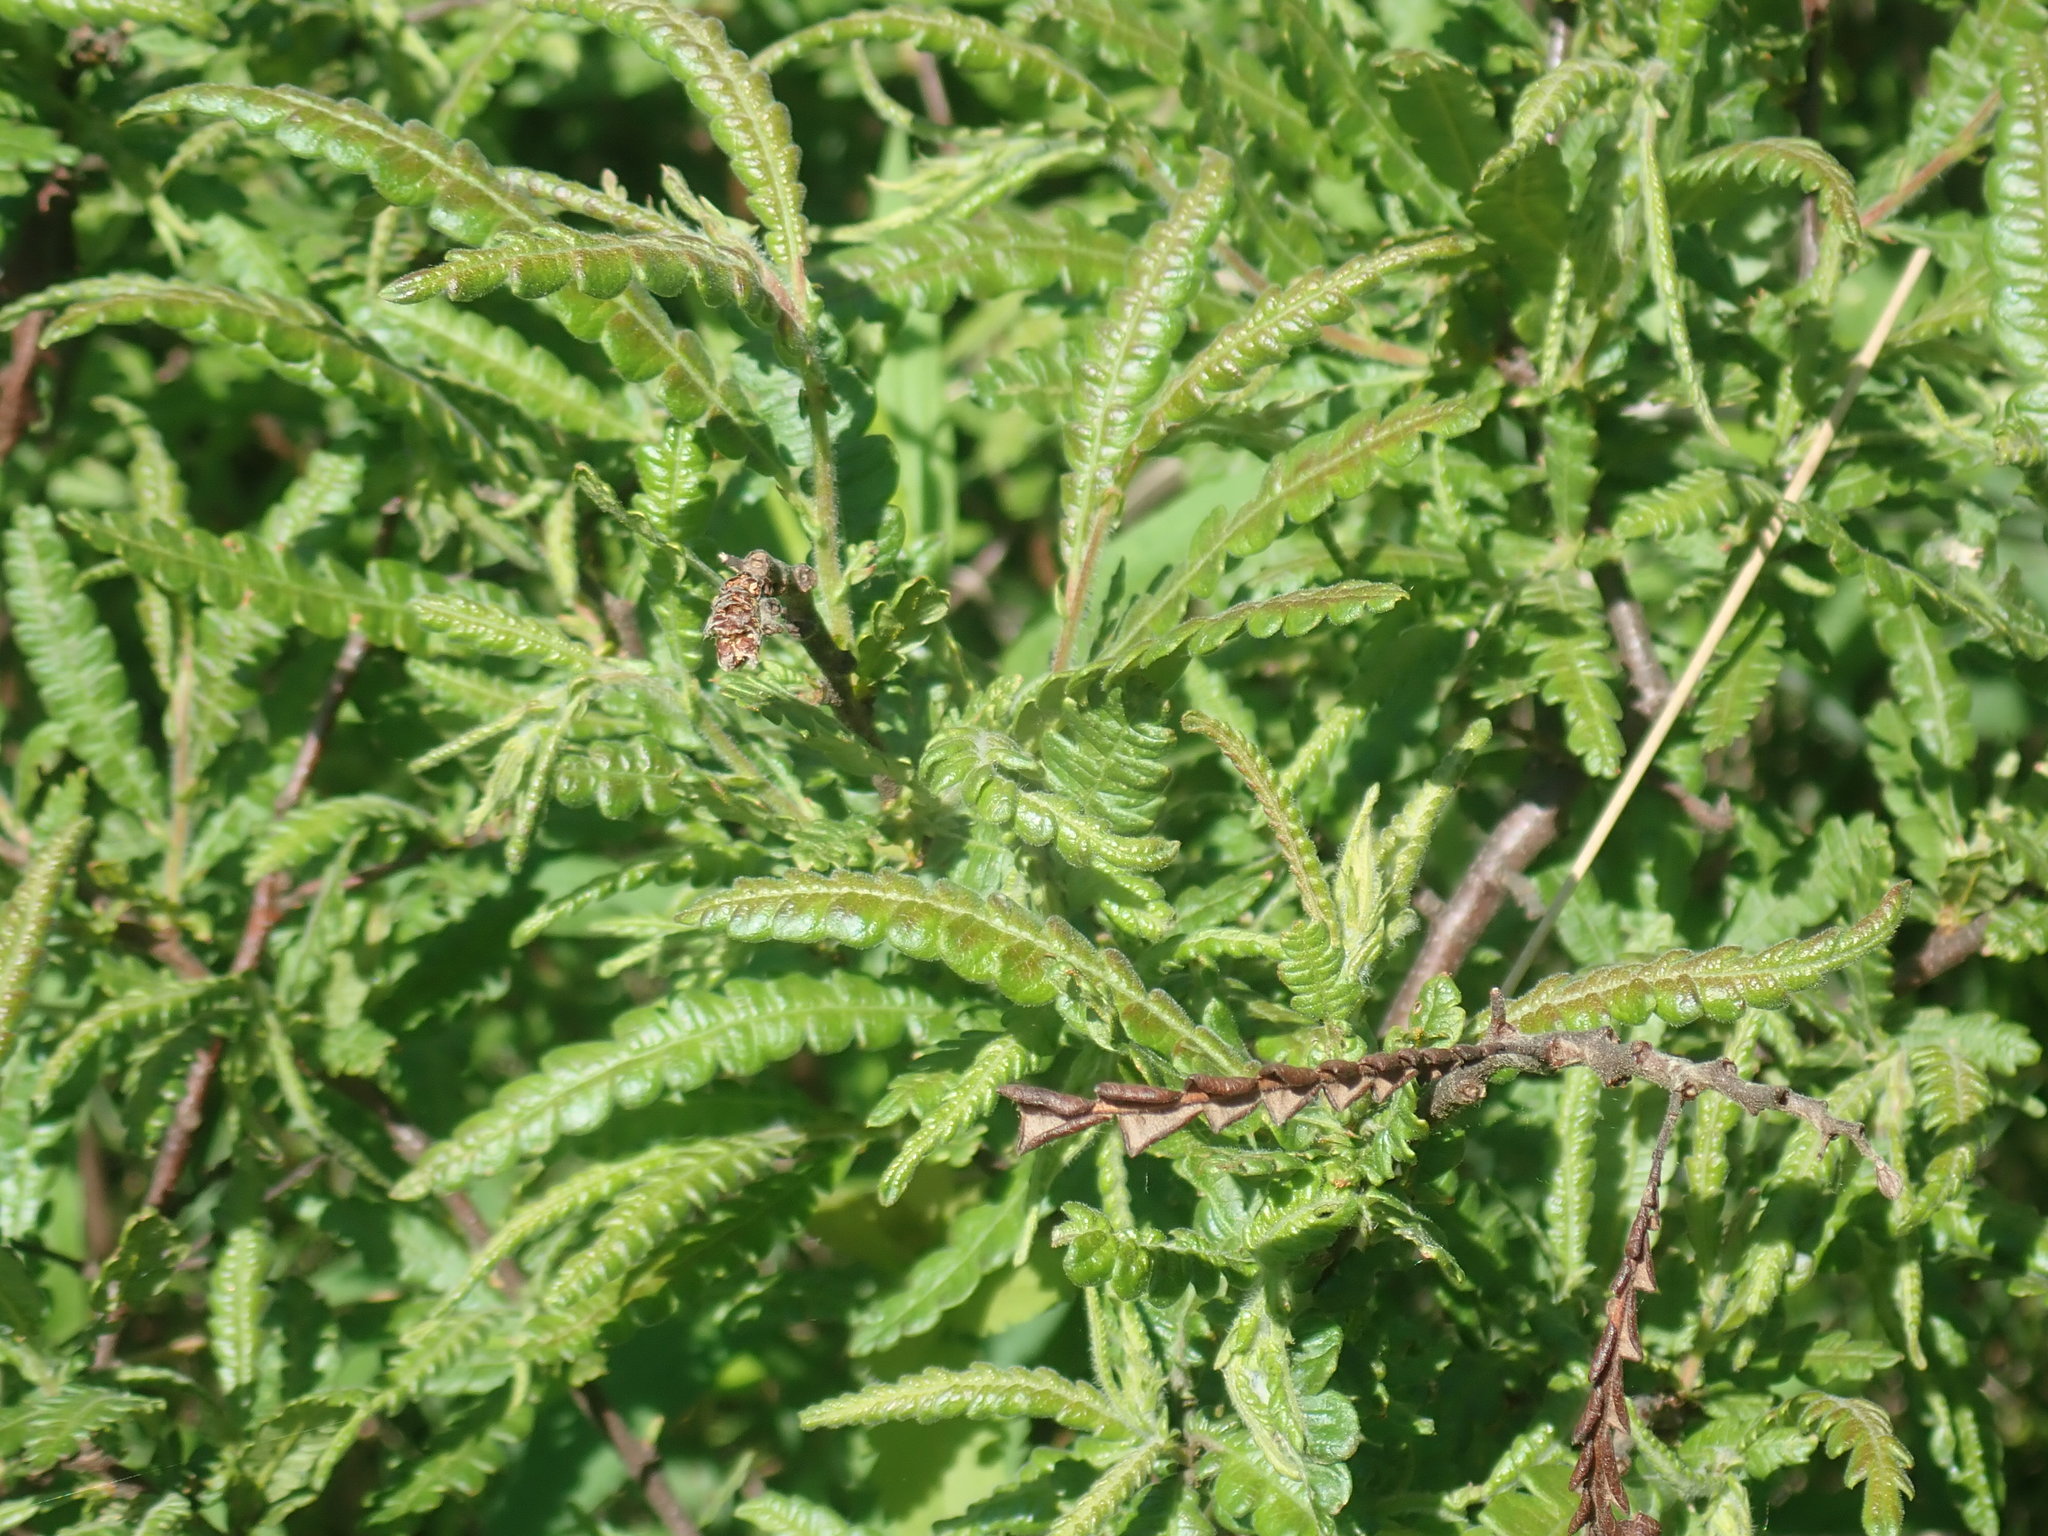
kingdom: Plantae
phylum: Tracheophyta
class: Magnoliopsida
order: Fagales
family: Myricaceae
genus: Comptonia
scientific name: Comptonia peregrina
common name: Sweet-fern
